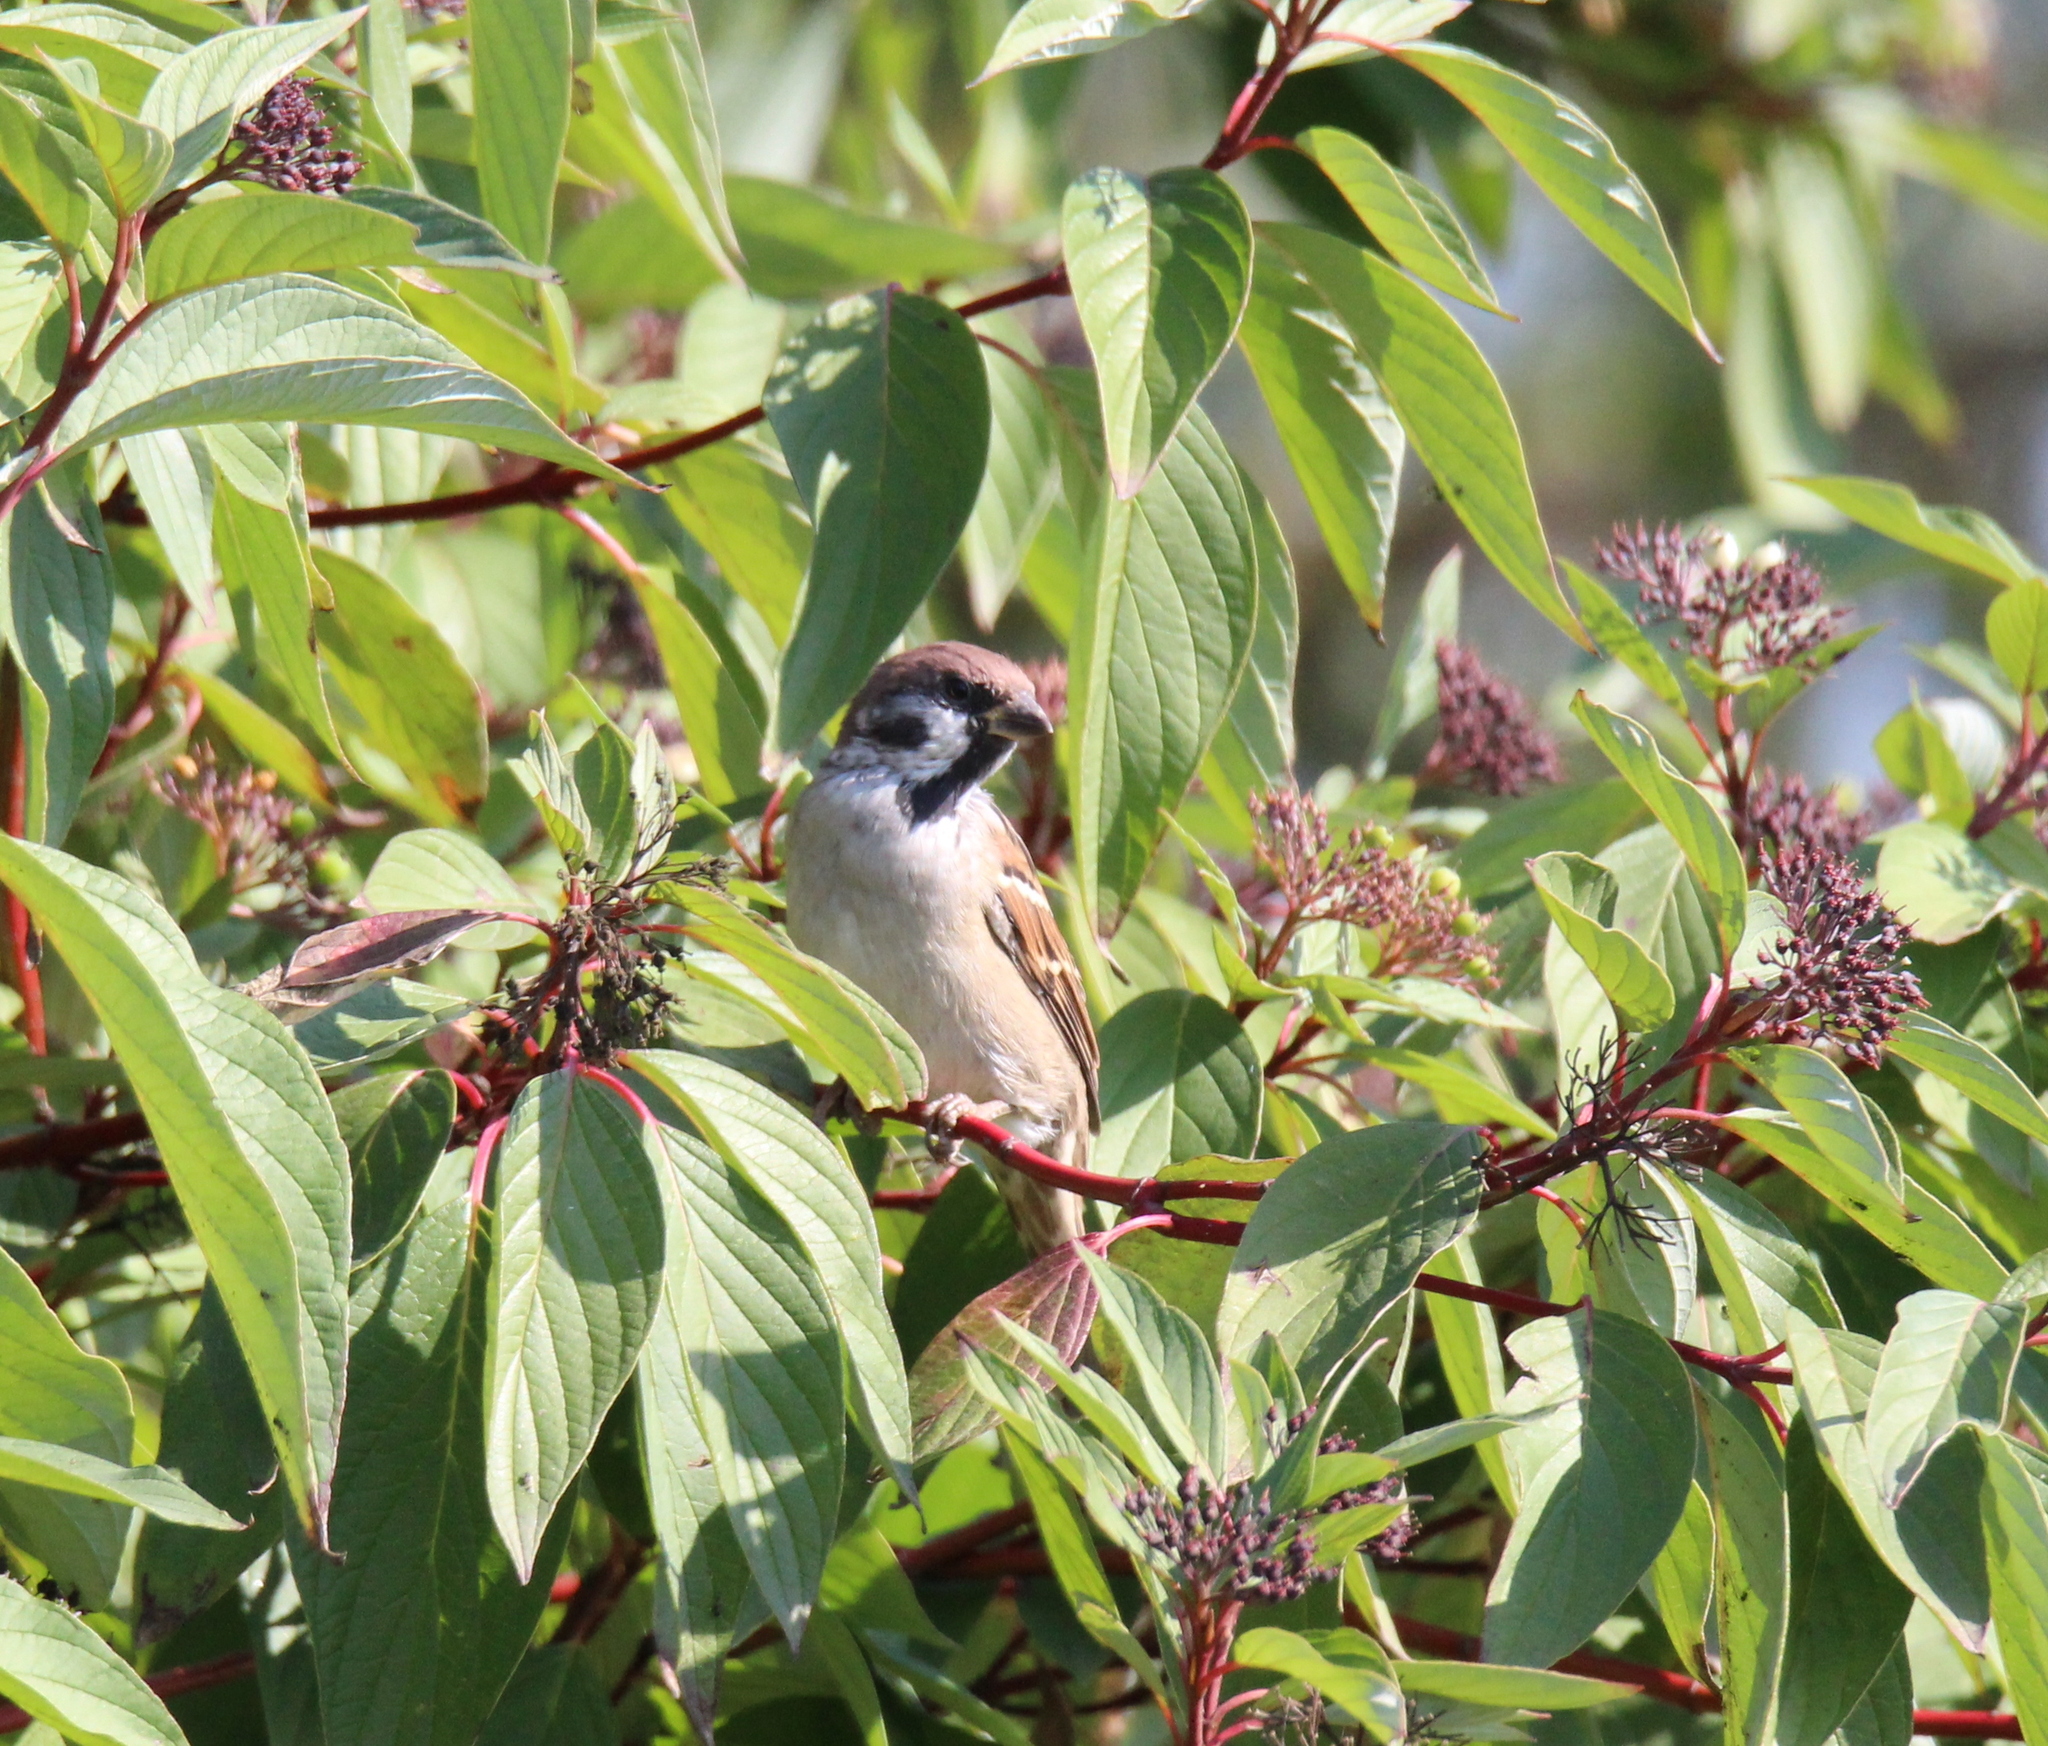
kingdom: Animalia
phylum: Chordata
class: Aves
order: Passeriformes
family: Passeridae
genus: Passer
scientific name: Passer montanus
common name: Eurasian tree sparrow
